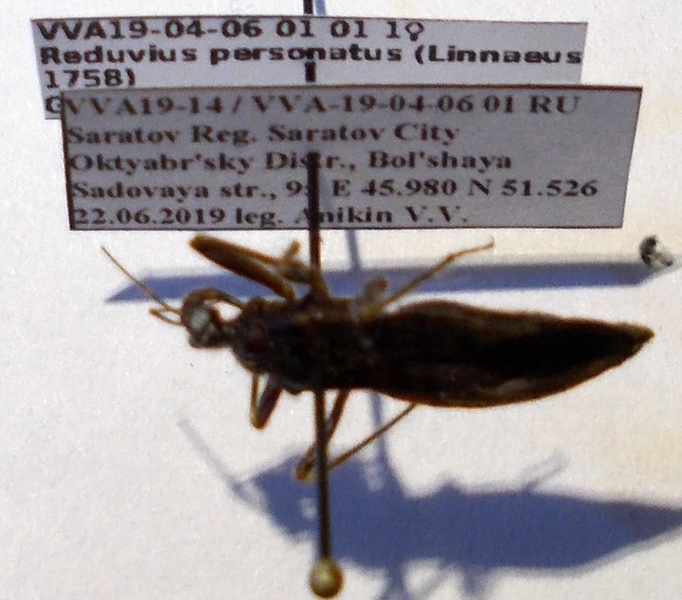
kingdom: Animalia
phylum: Arthropoda
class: Insecta
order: Hemiptera
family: Reduviidae
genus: Reduvius
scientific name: Reduvius personatus
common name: Masked hunter
